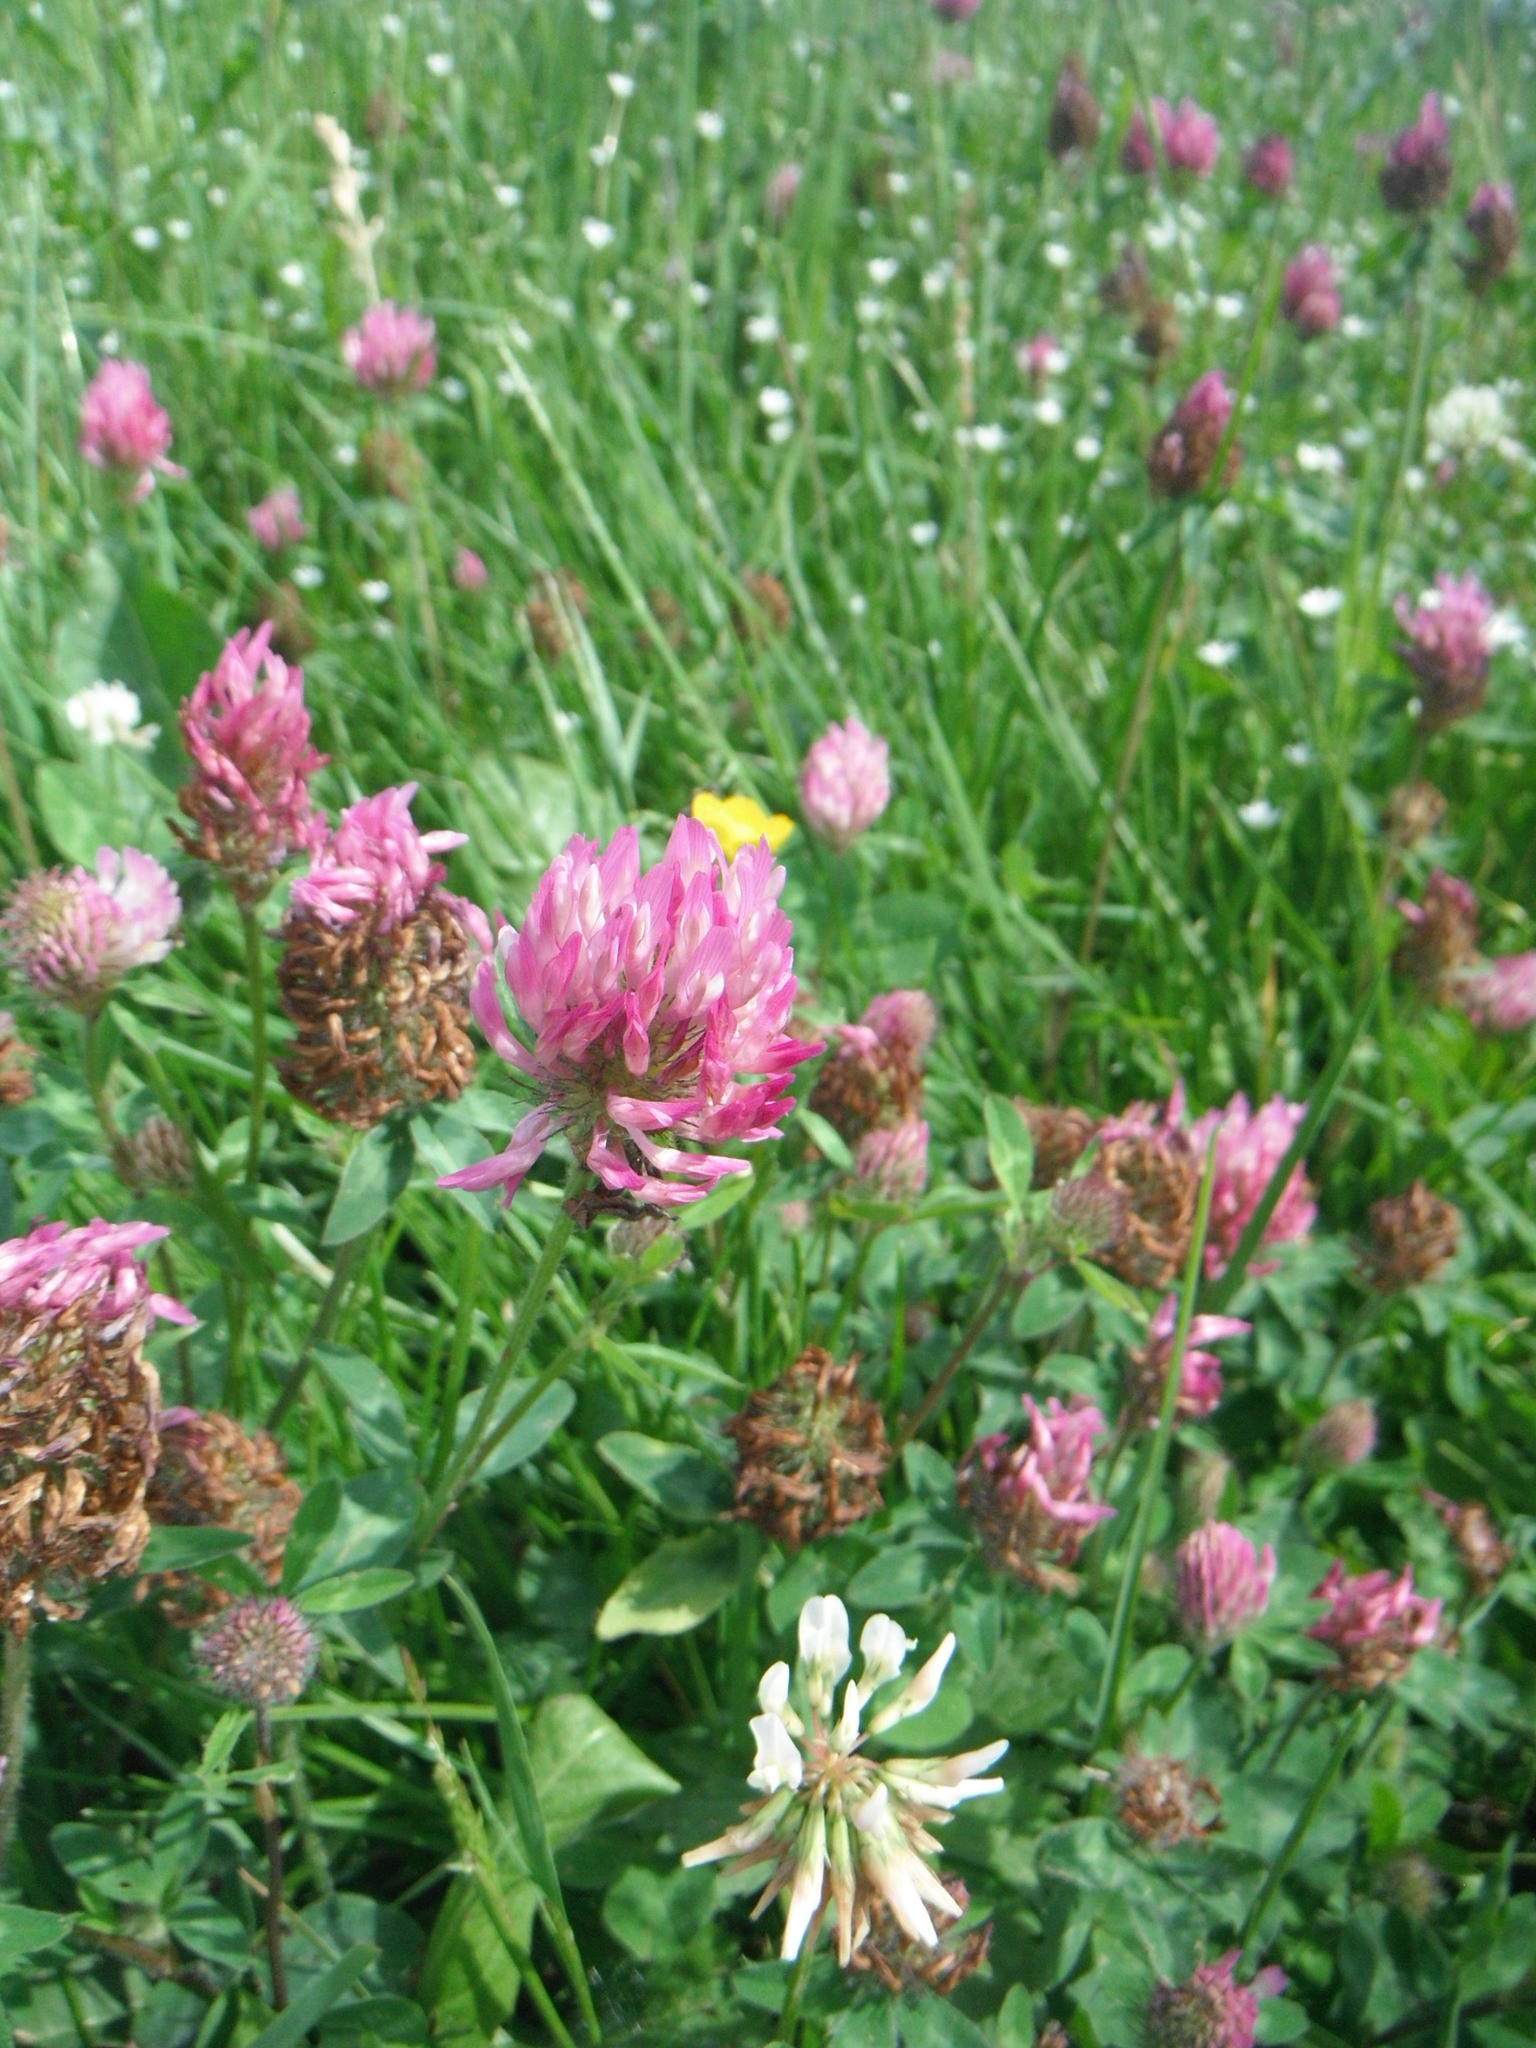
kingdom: Plantae
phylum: Tracheophyta
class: Magnoliopsida
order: Fabales
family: Fabaceae
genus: Trifolium
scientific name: Trifolium pratense
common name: Red clover
